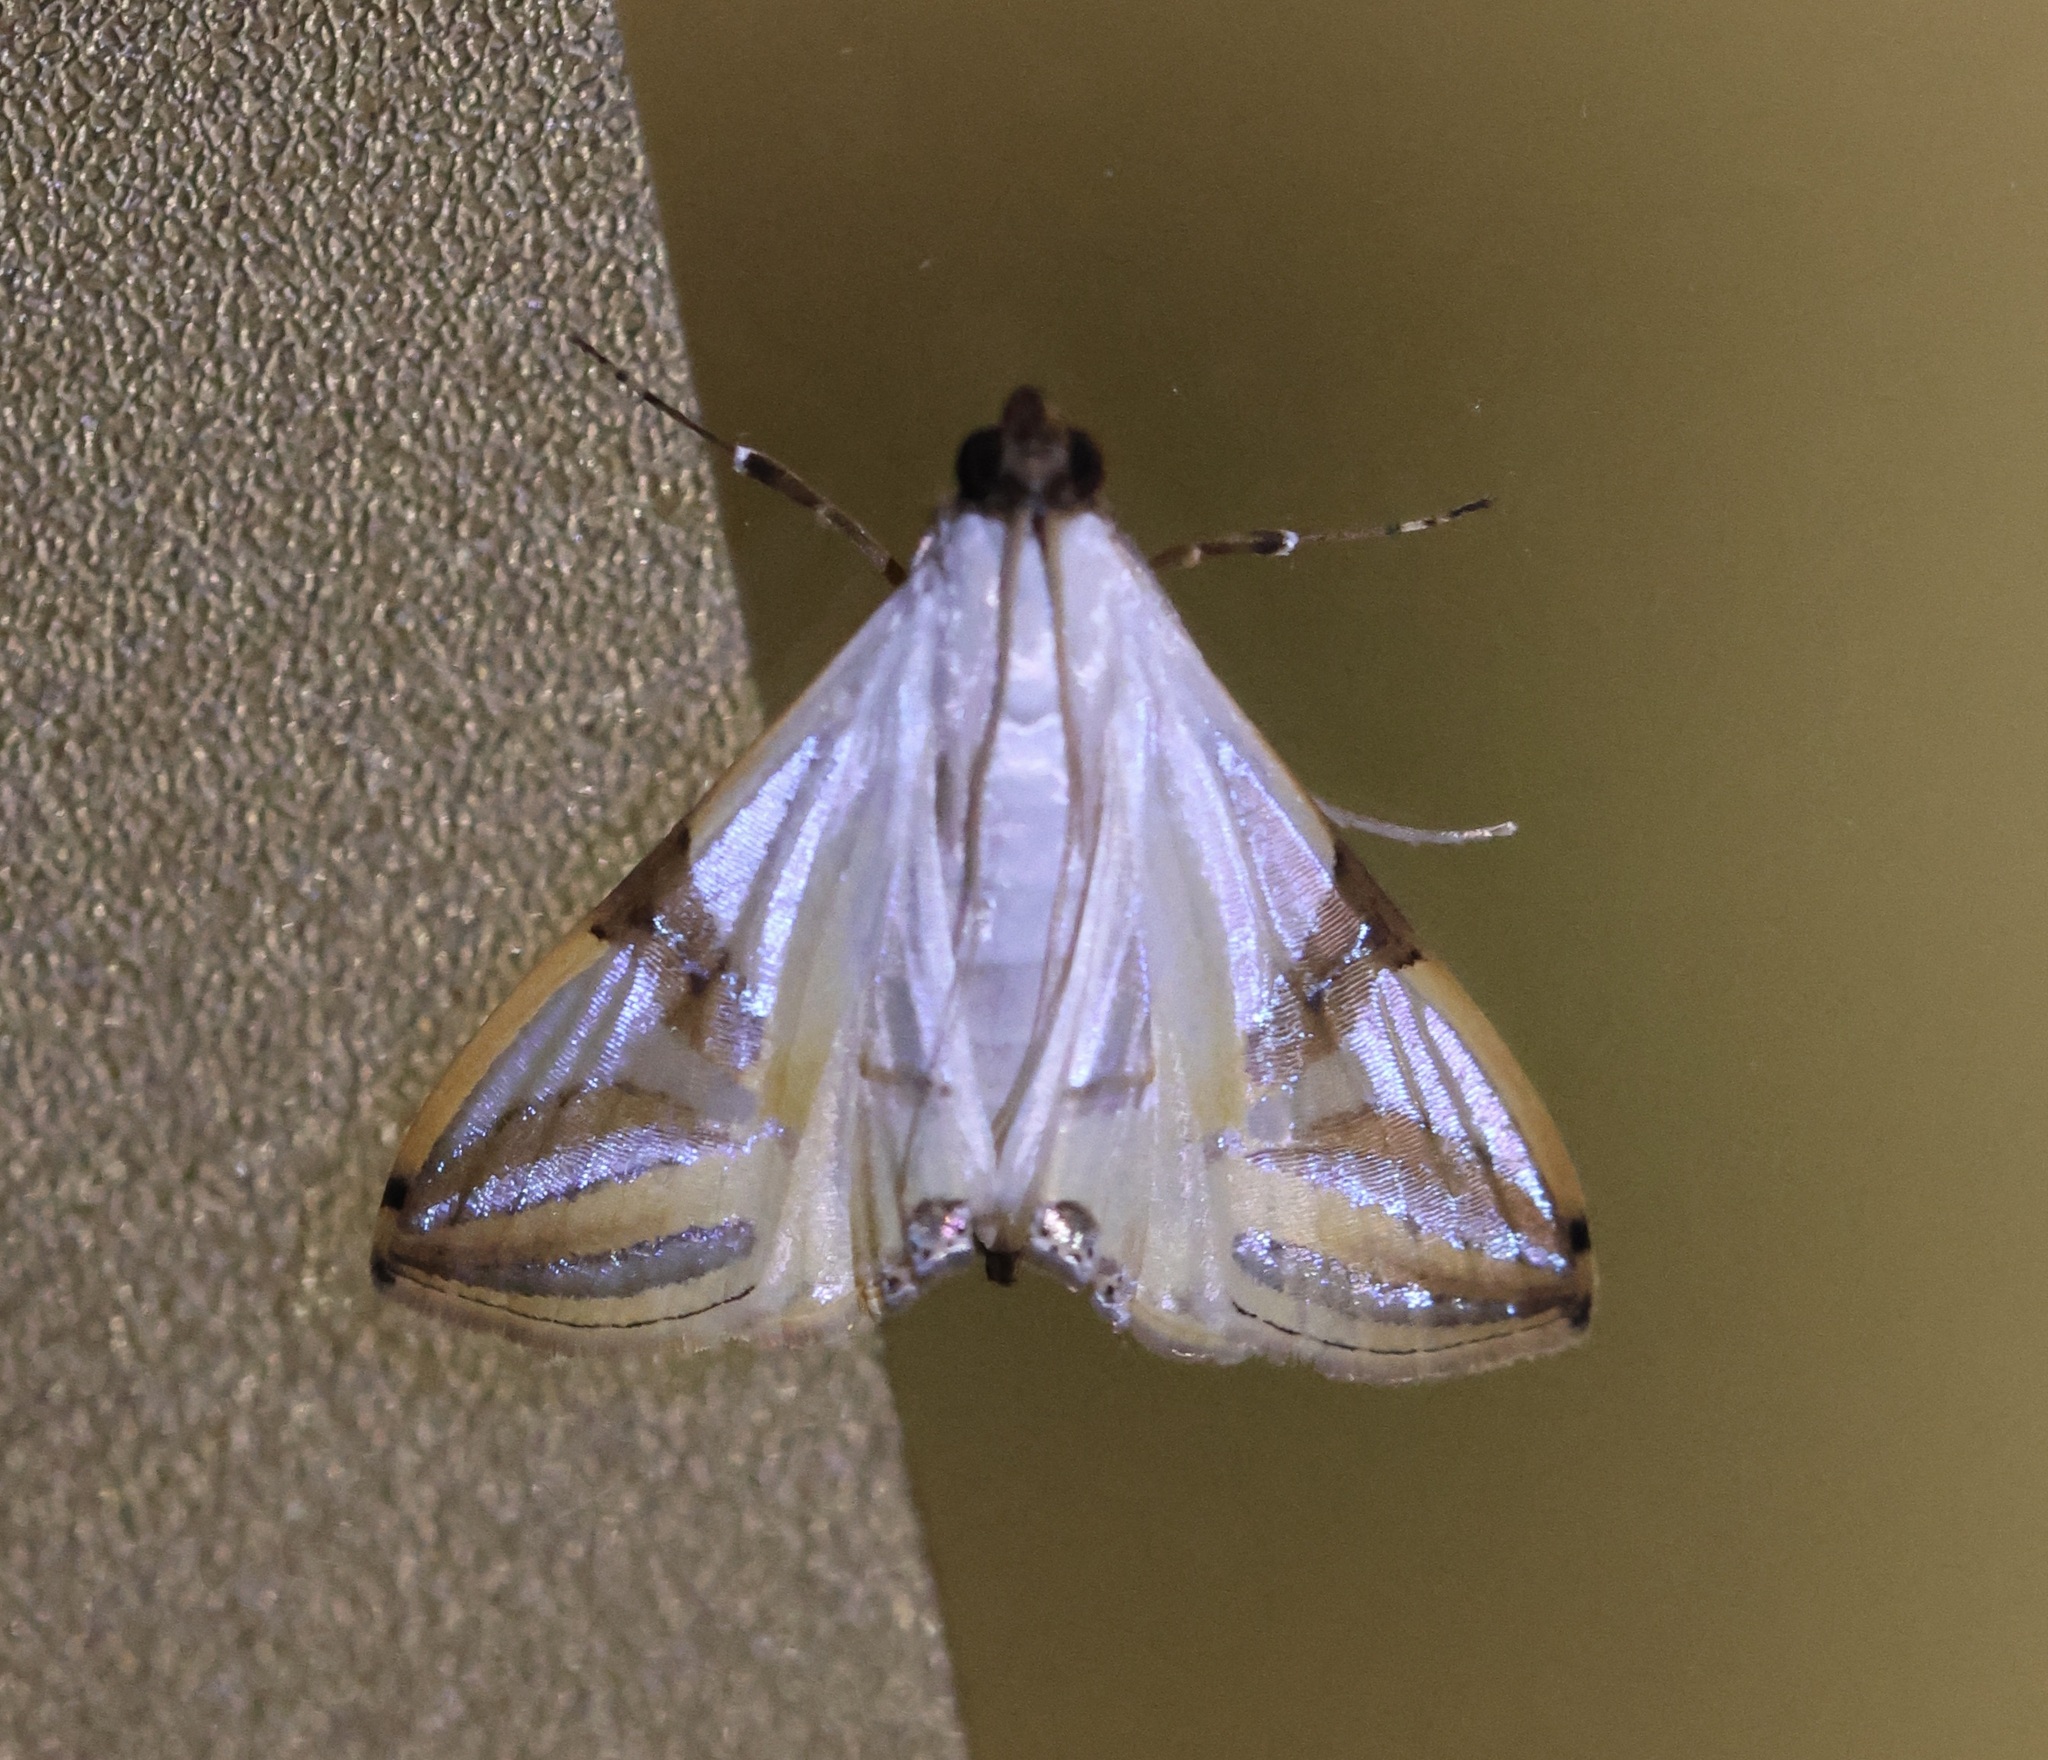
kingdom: Animalia
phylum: Arthropoda
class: Insecta
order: Lepidoptera
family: Crambidae
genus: Talanga
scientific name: Talanga sabacusalis
